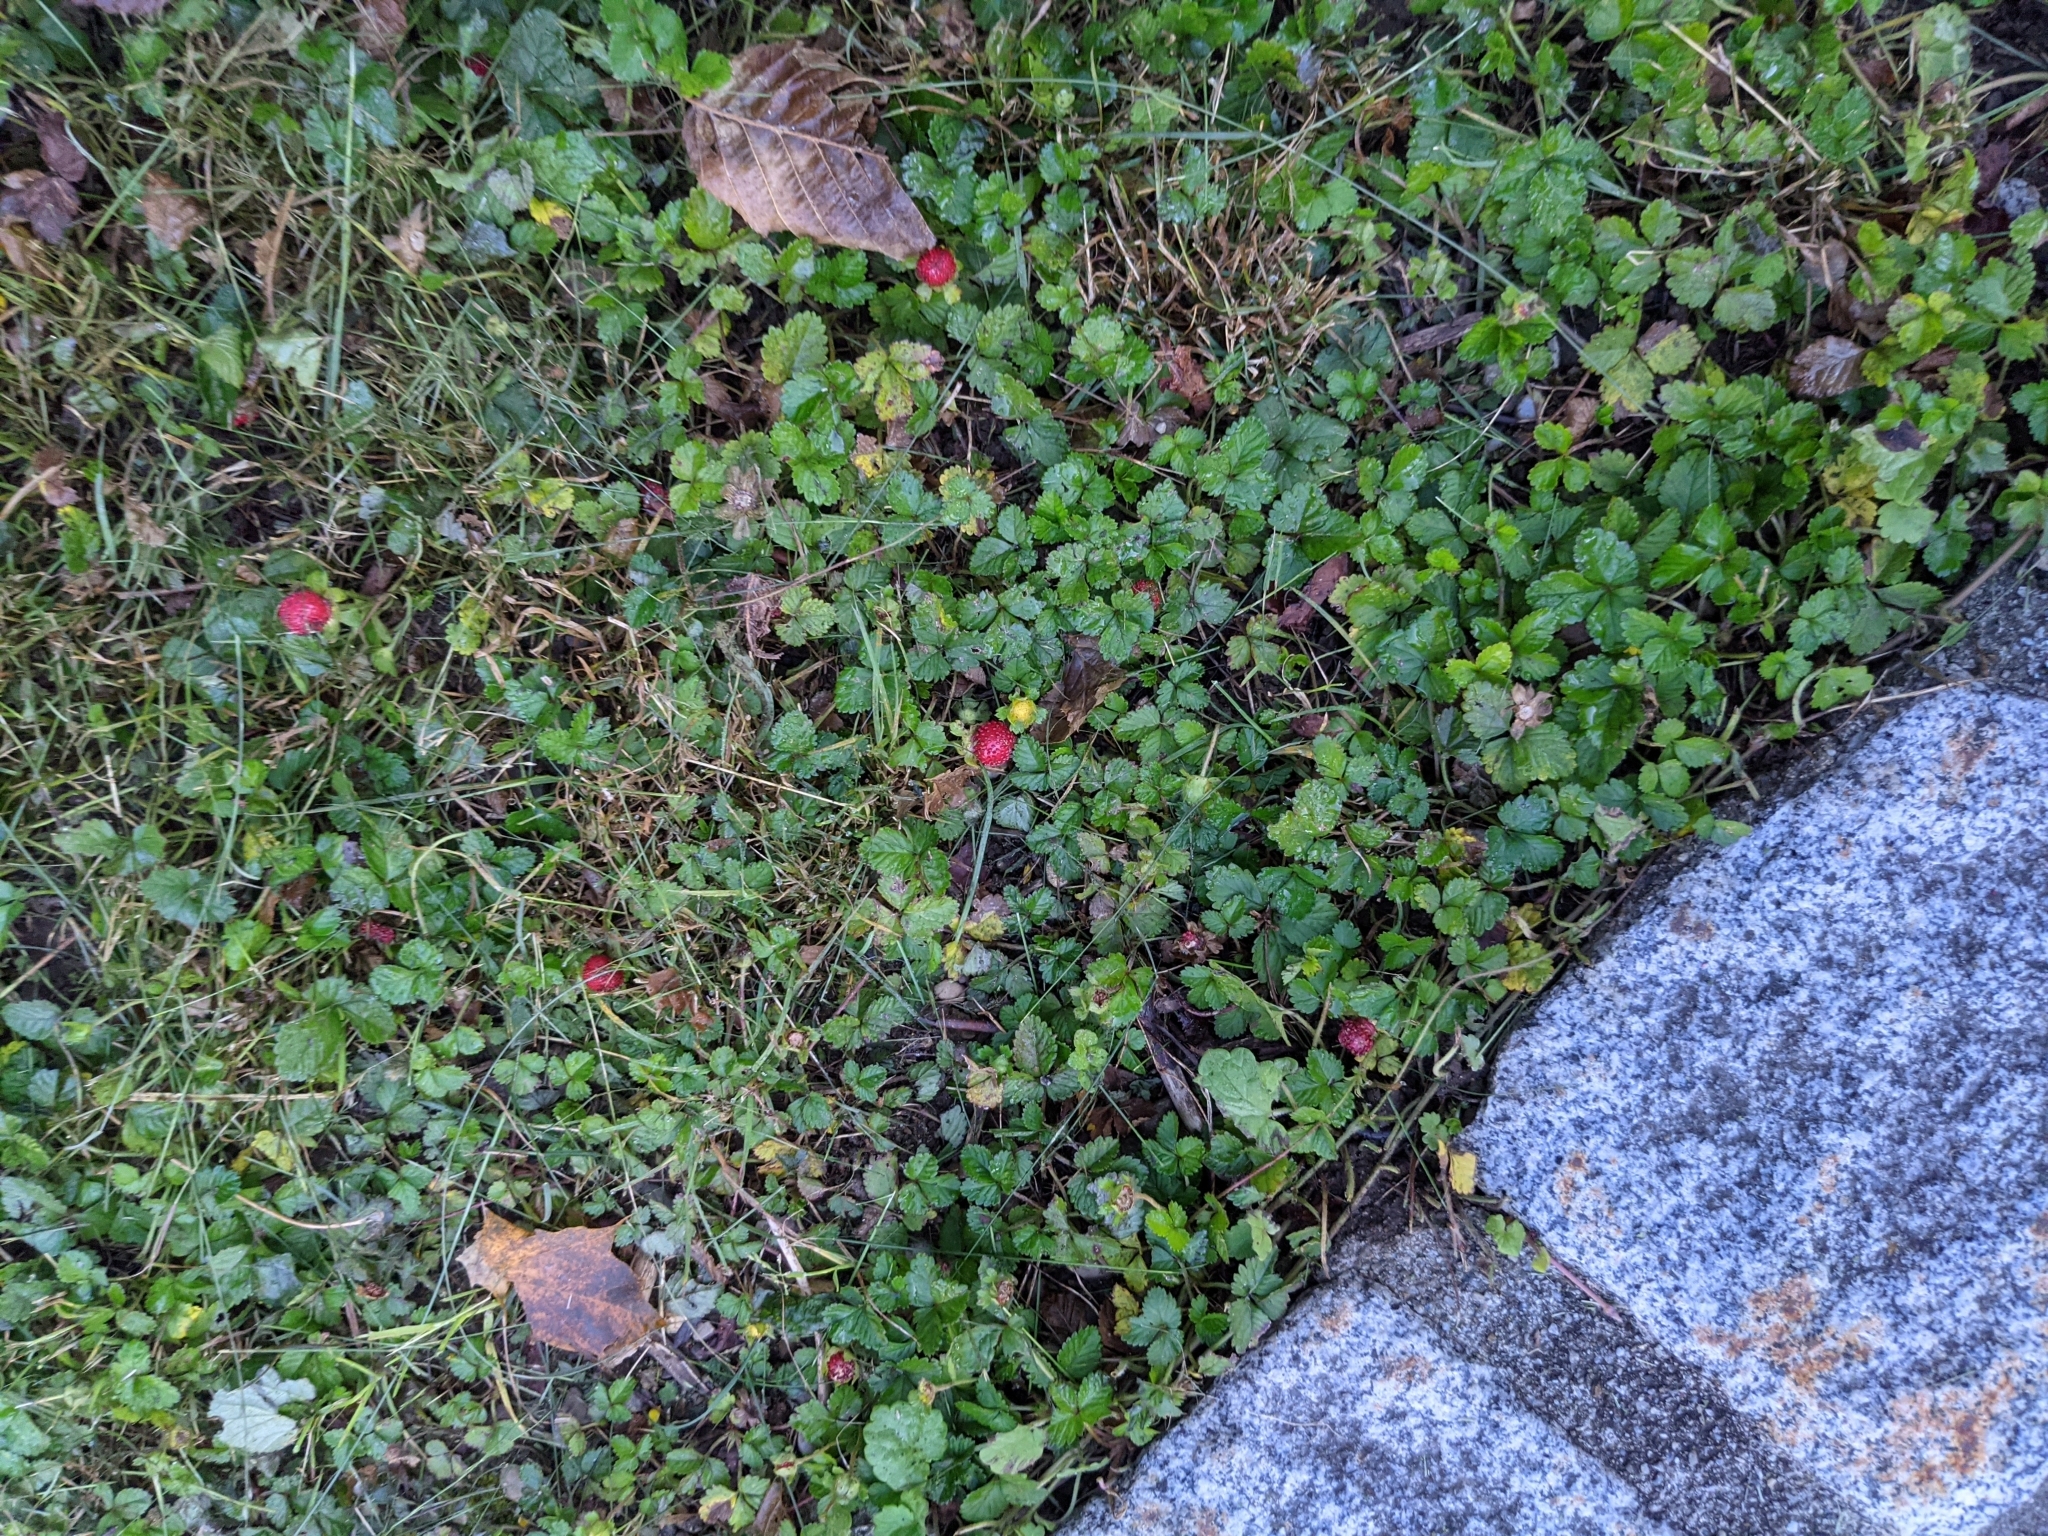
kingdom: Plantae
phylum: Tracheophyta
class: Magnoliopsida
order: Rosales
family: Rosaceae
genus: Potentilla
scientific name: Potentilla indica
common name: Yellow-flowered strawberry
